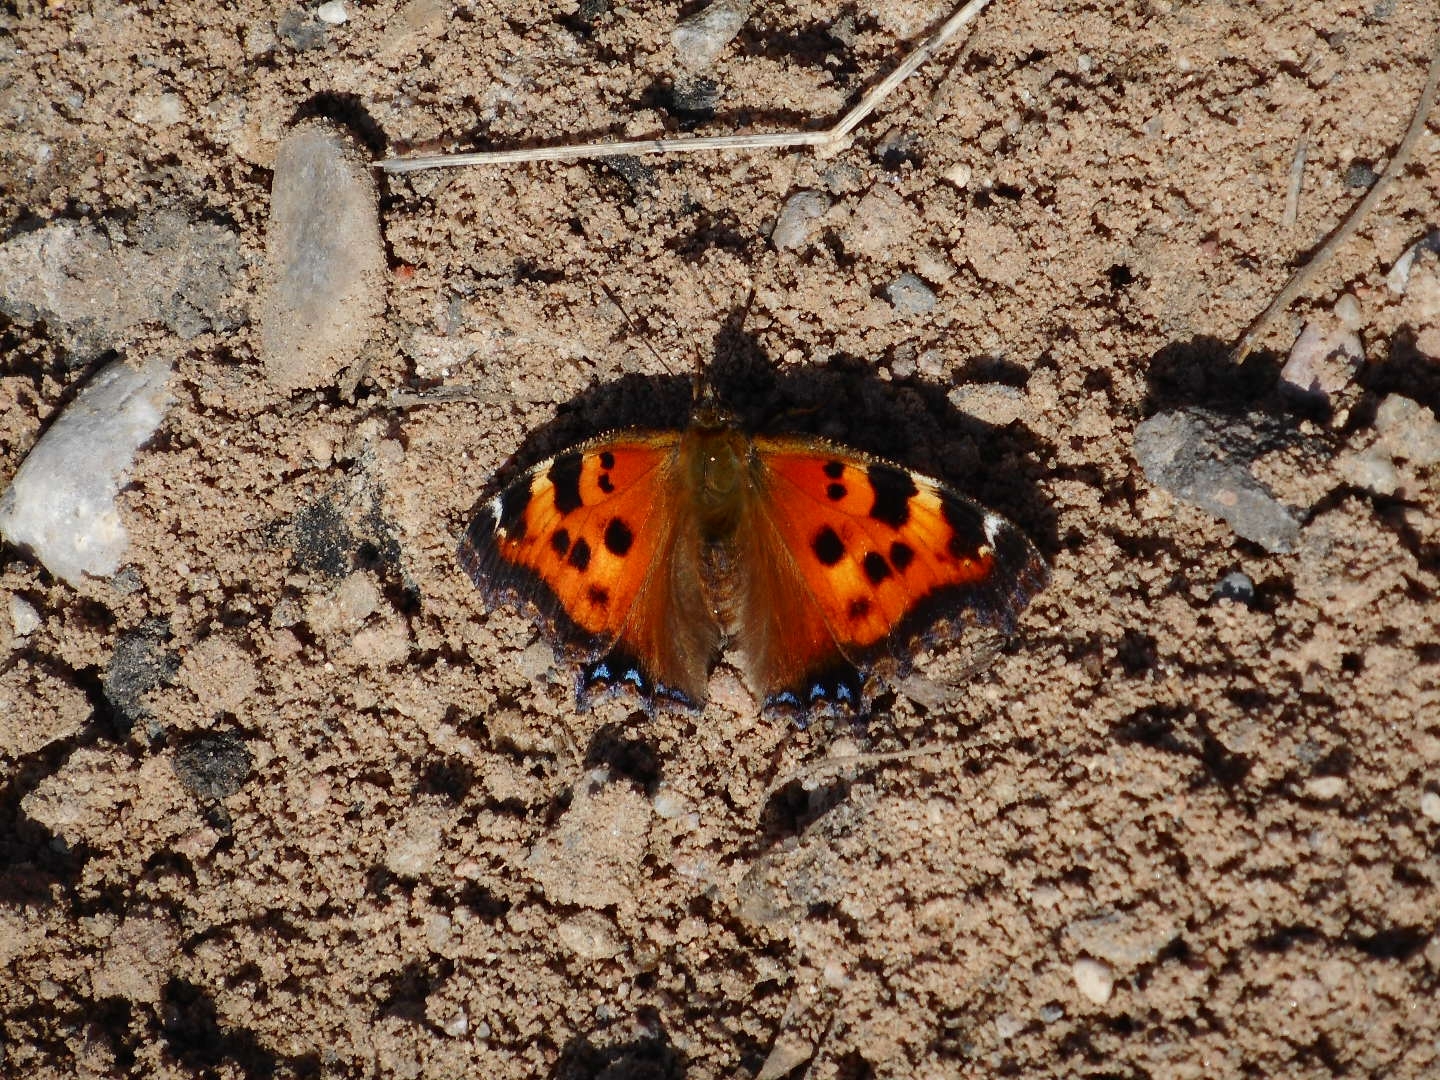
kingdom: Animalia
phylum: Arthropoda
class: Insecta
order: Lepidoptera
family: Nymphalidae
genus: Nymphalis
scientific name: Nymphalis xanthomelas
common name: Scarce tortoiseshell
